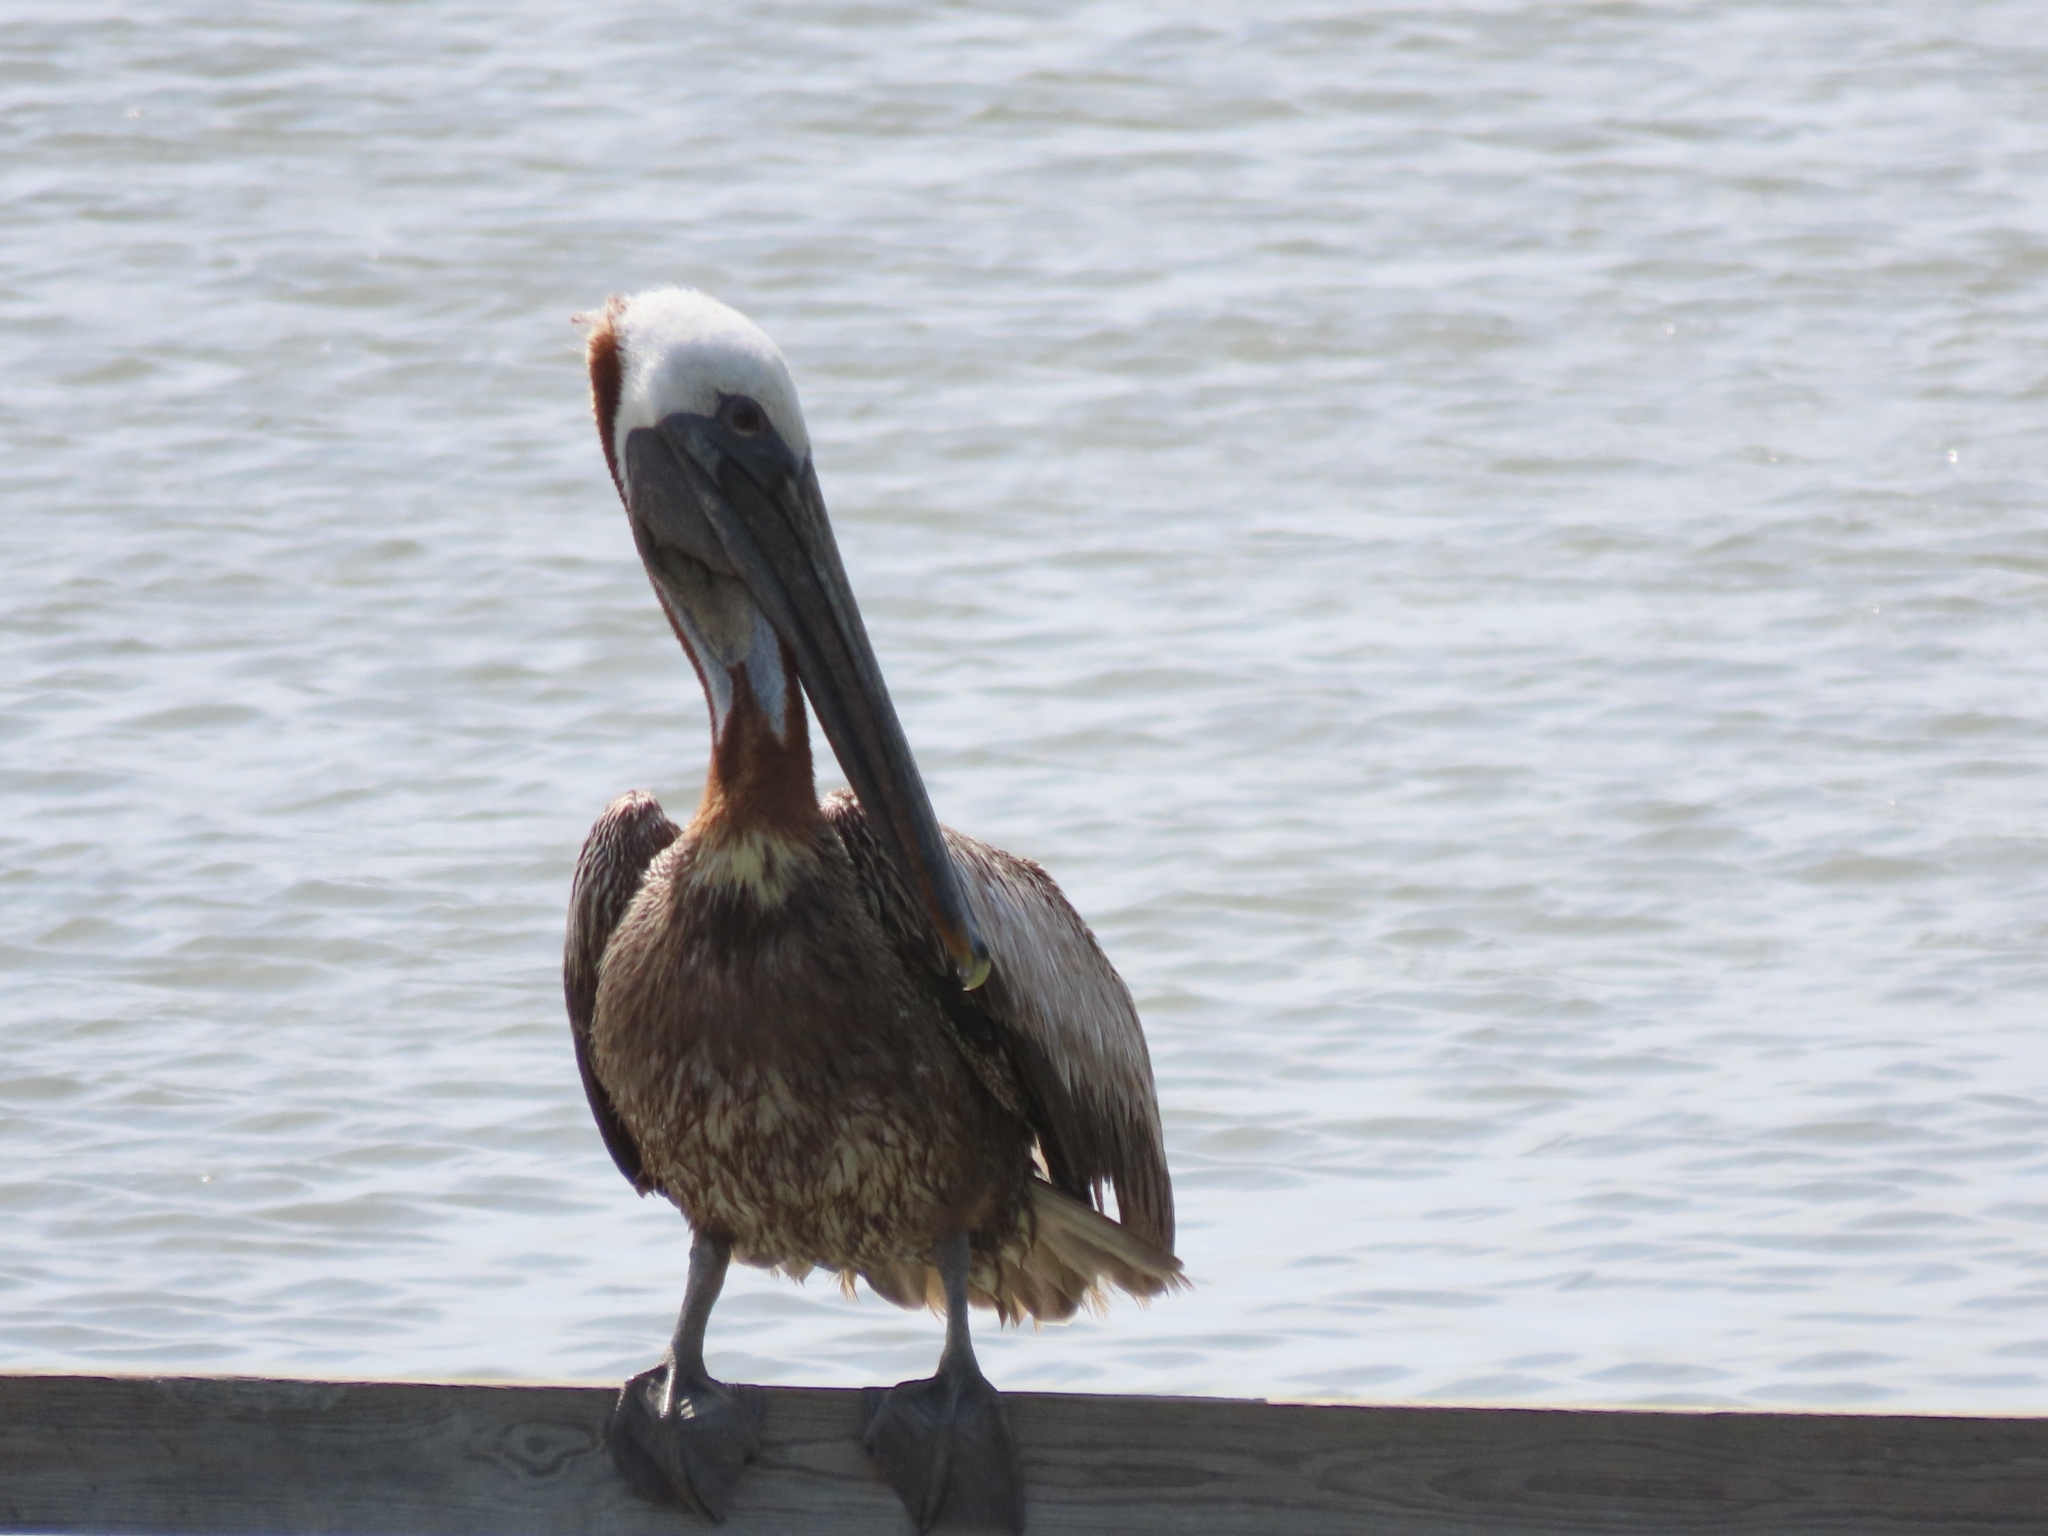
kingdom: Animalia
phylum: Chordata
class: Aves
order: Pelecaniformes
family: Pelecanidae
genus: Pelecanus
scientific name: Pelecanus occidentalis
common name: Brown pelican
